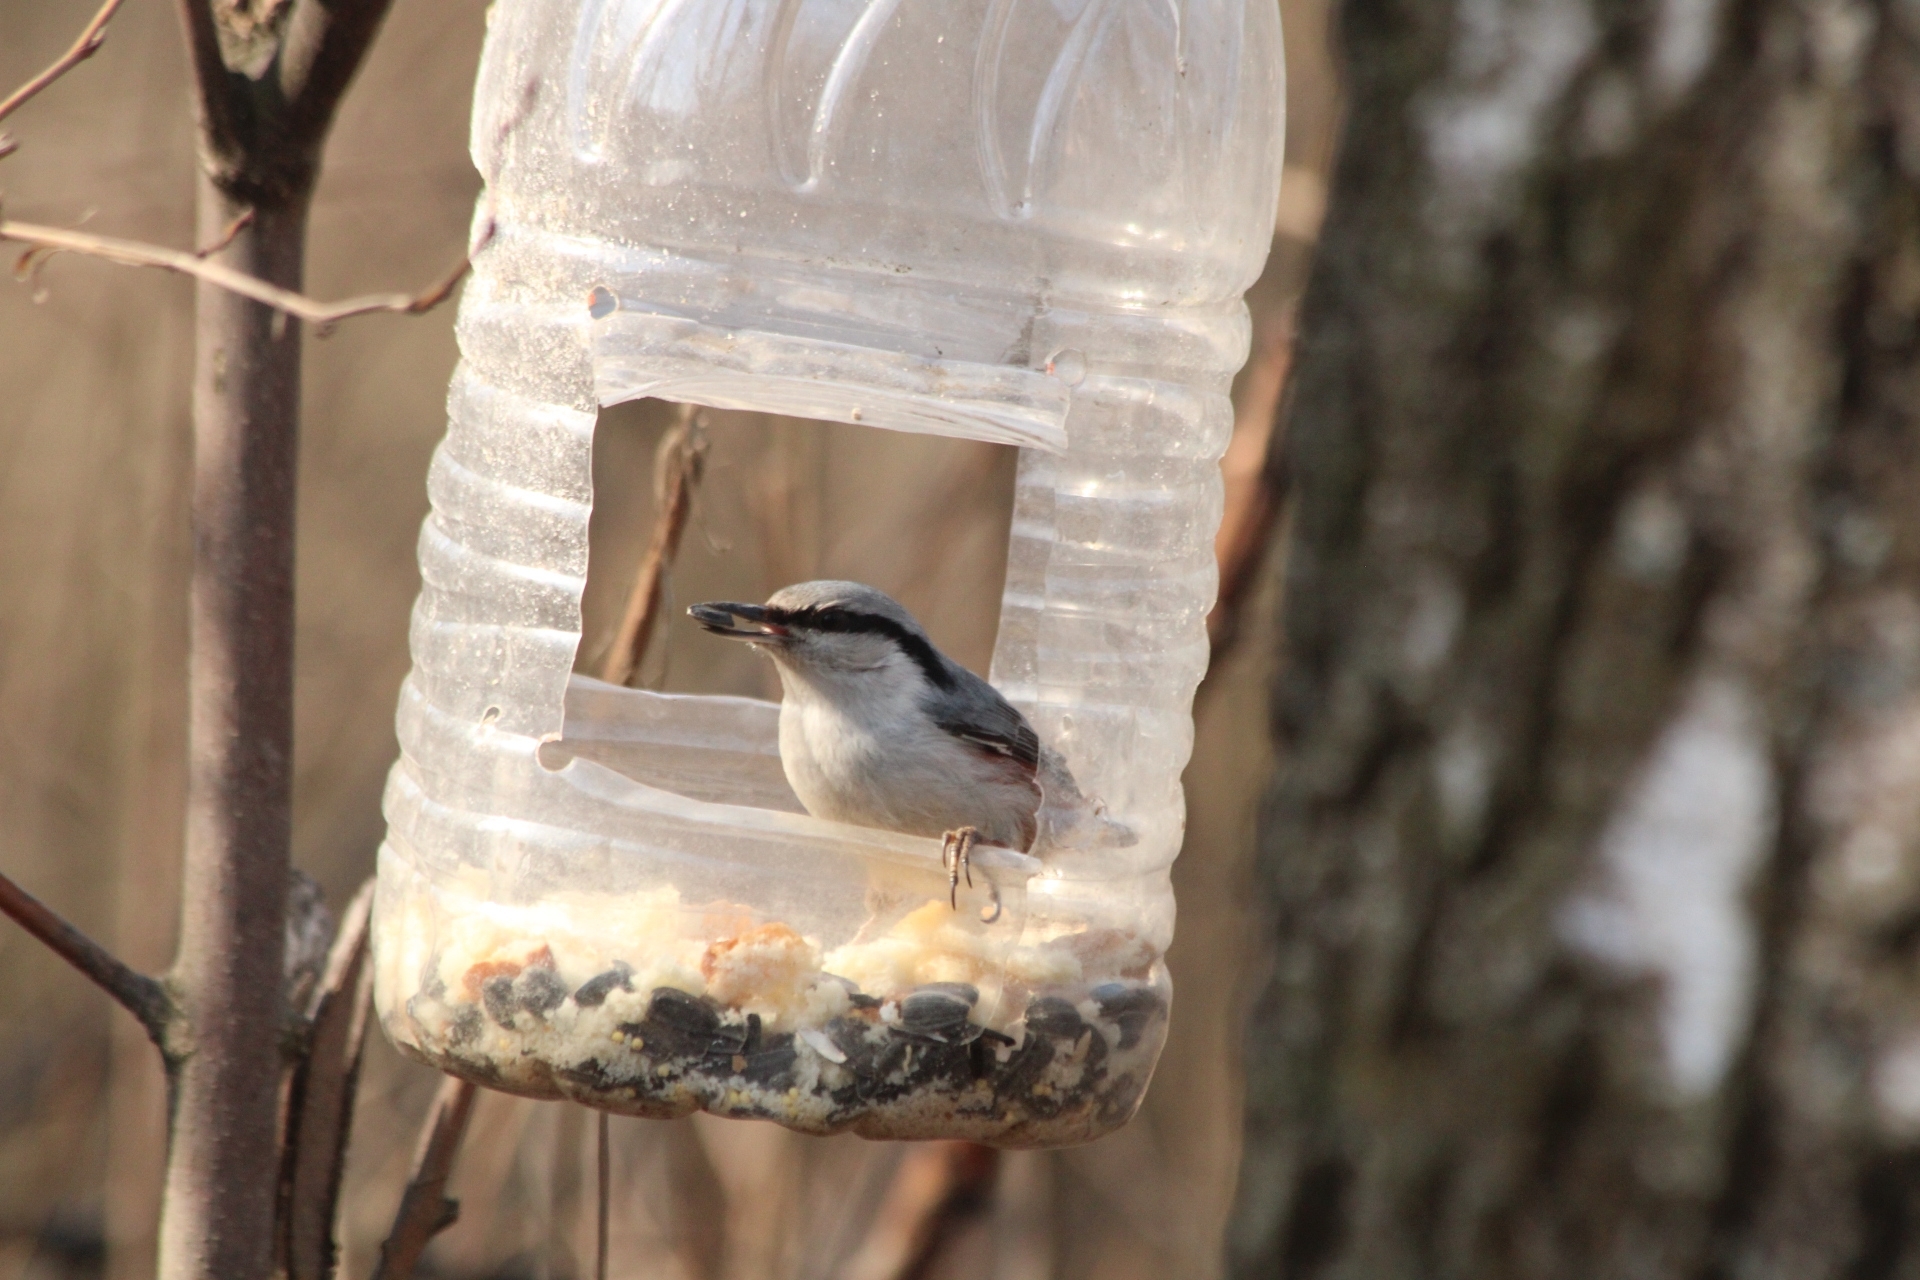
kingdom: Animalia
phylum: Chordata
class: Aves
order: Passeriformes
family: Sittidae
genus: Sitta
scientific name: Sitta europaea
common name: Eurasian nuthatch
